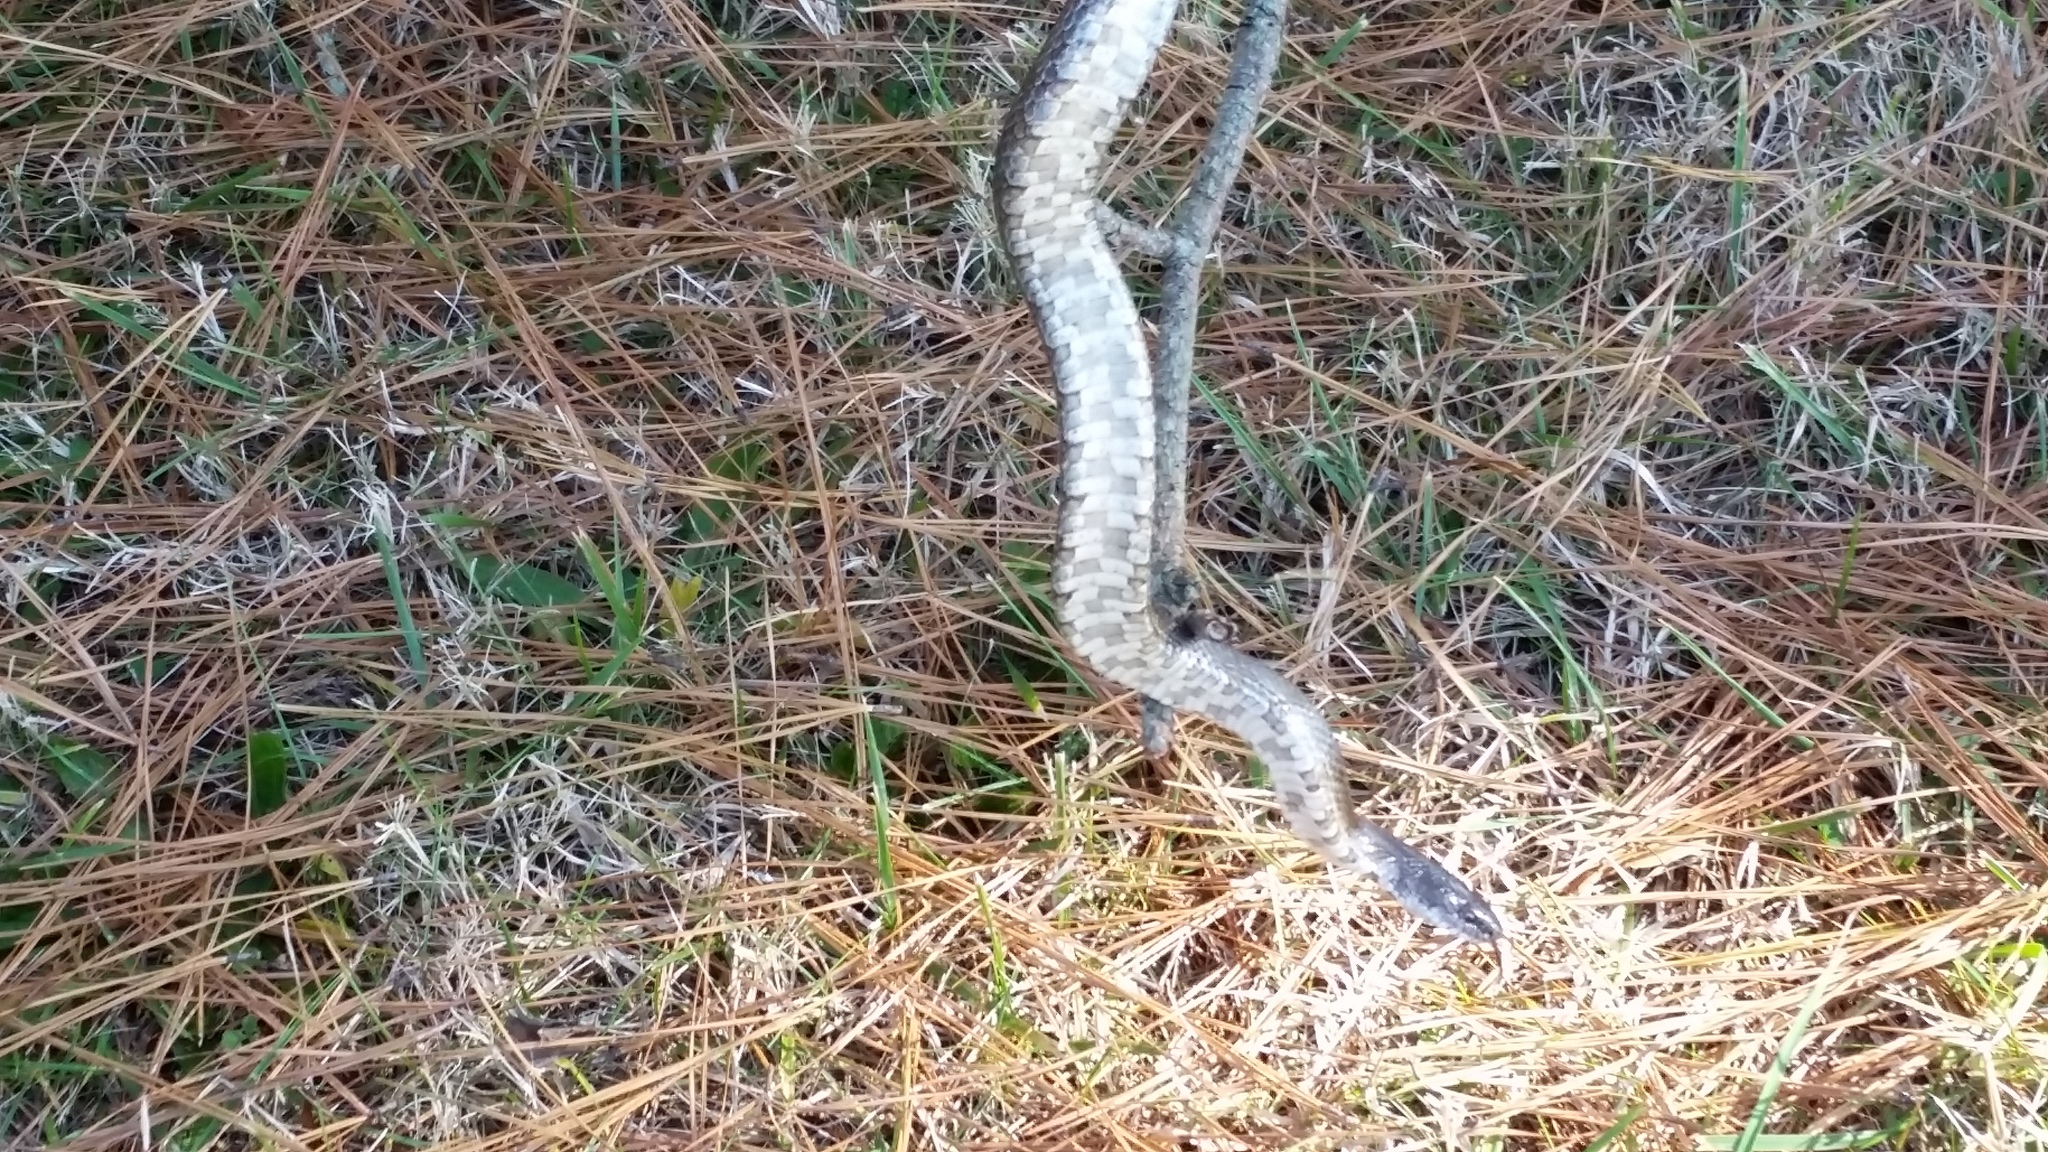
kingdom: Animalia
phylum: Chordata
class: Squamata
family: Colubridae
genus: Pantherophis
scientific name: Pantherophis spiloides
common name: Gray rat snake
